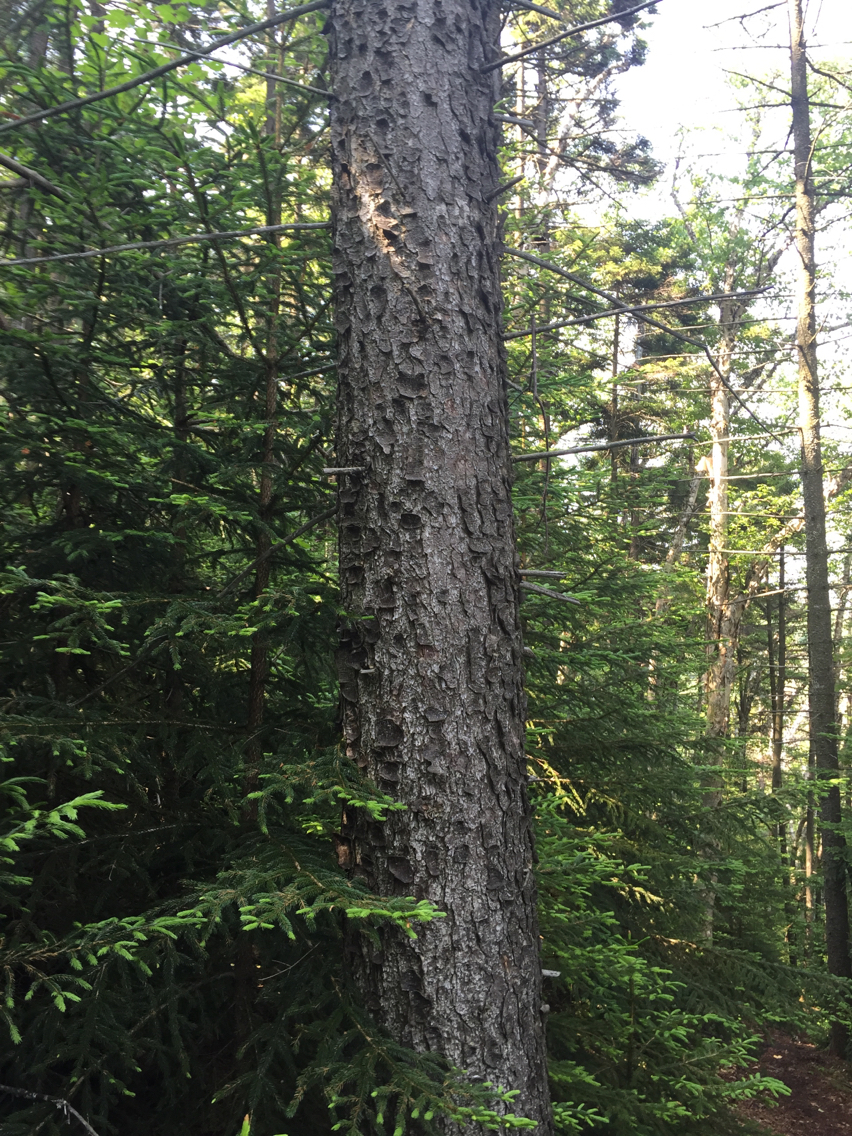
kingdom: Plantae
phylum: Tracheophyta
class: Pinopsida
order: Pinales
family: Pinaceae
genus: Picea
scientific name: Picea rubens
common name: Red spruce
